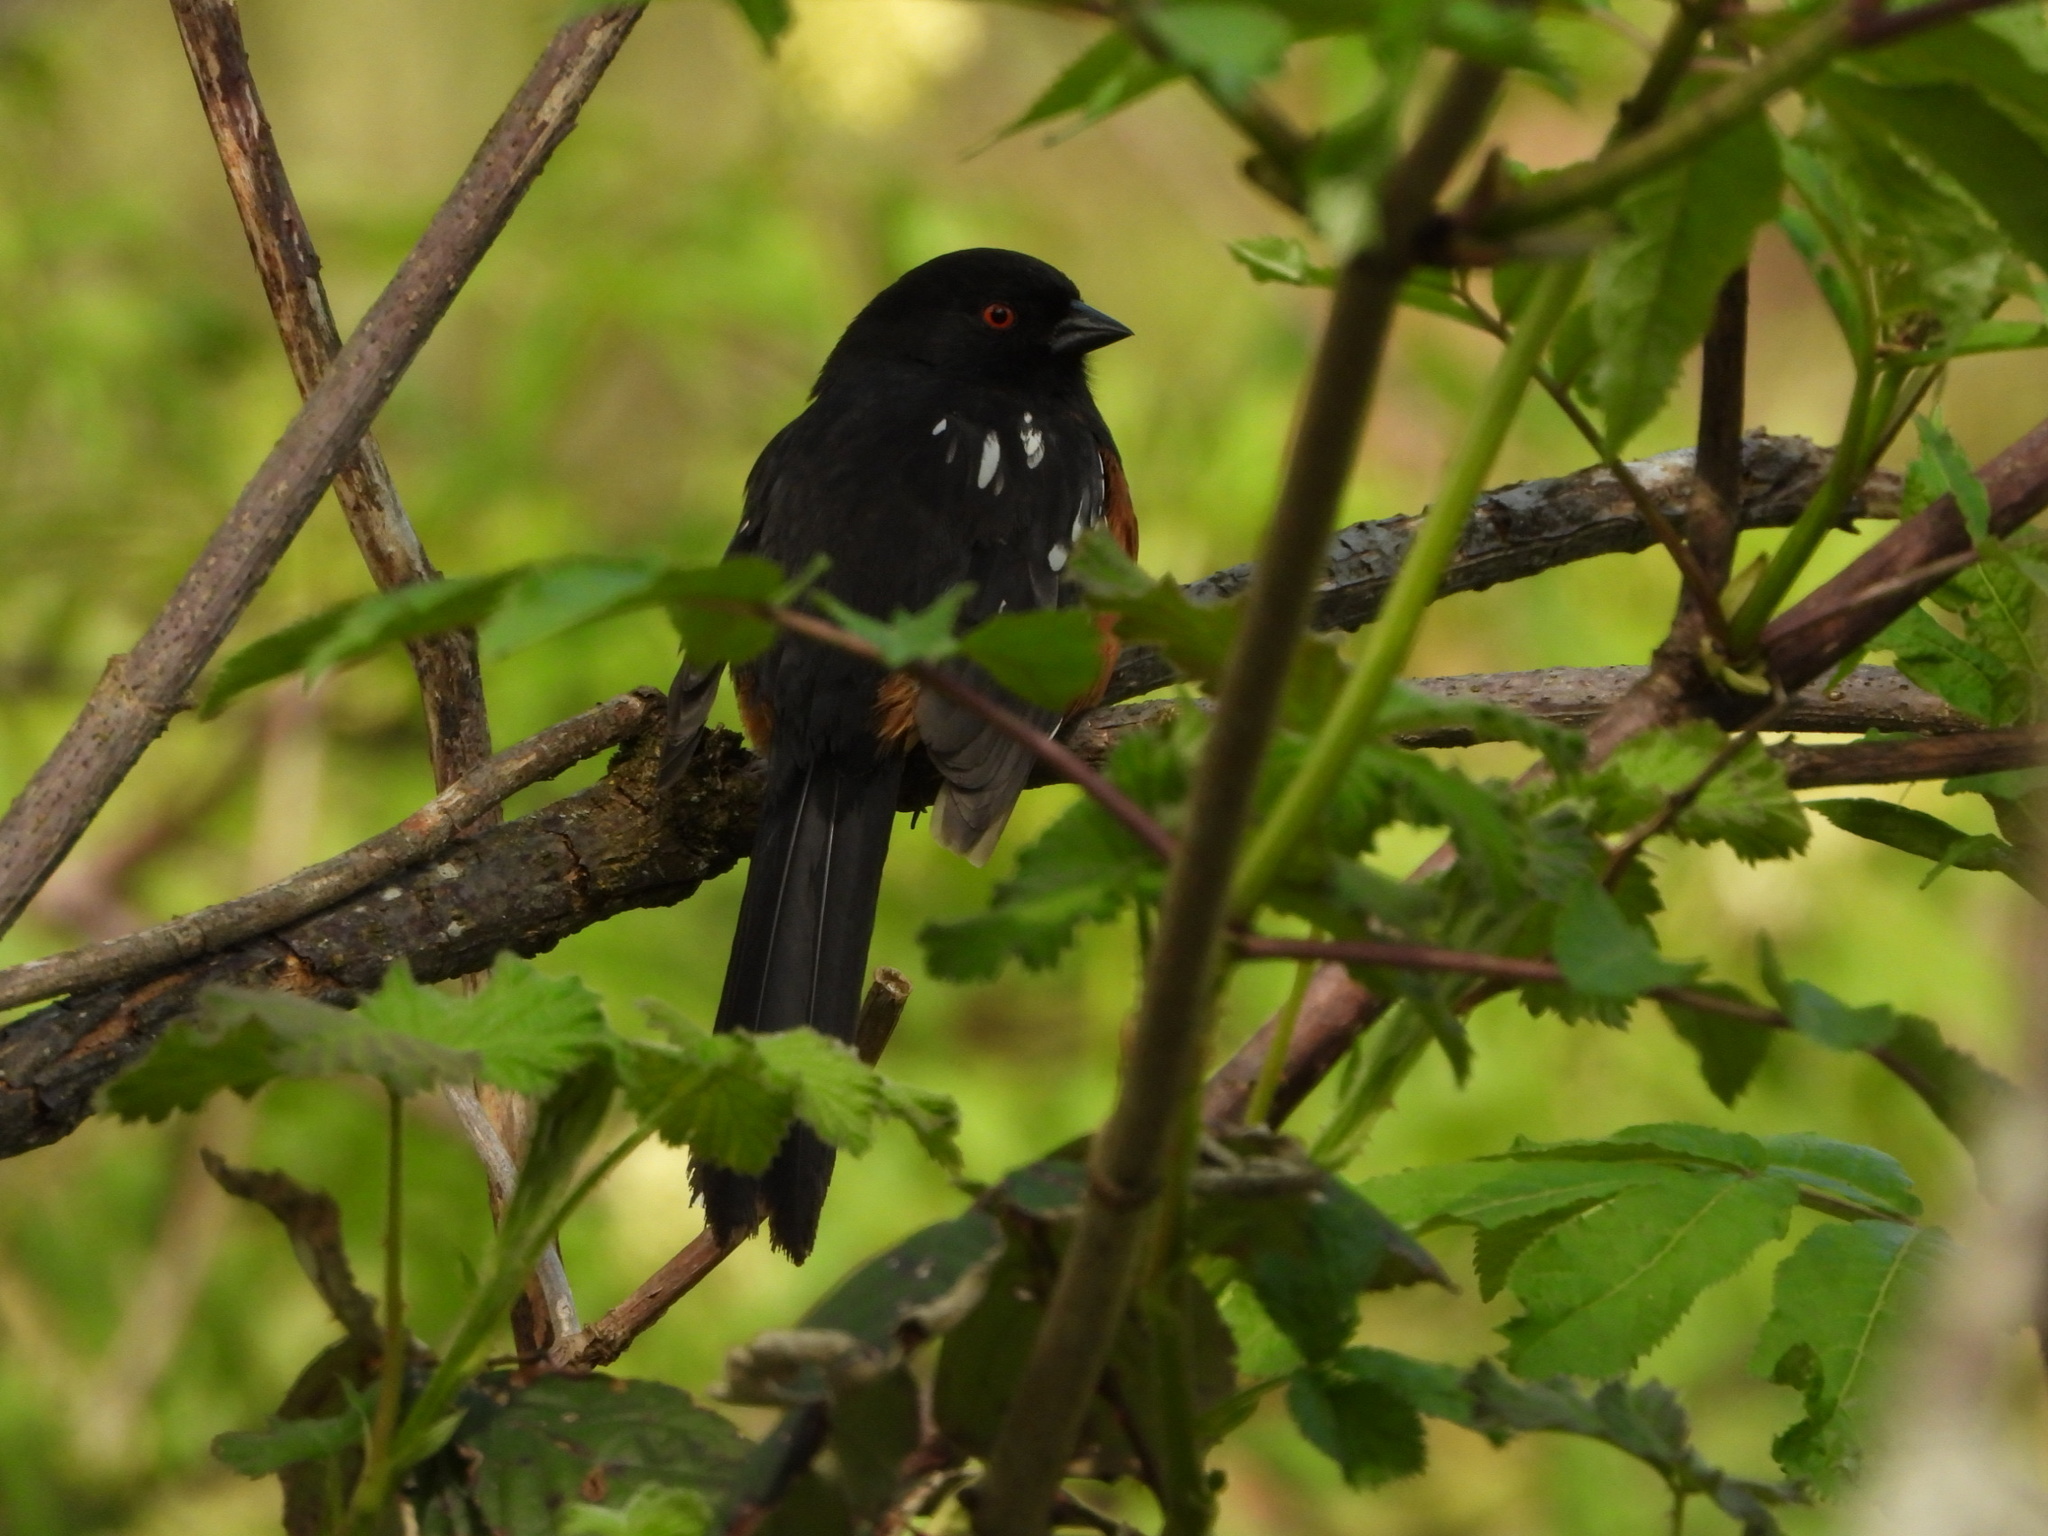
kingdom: Animalia
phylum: Chordata
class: Aves
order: Passeriformes
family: Passerellidae
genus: Pipilo
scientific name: Pipilo maculatus
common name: Spotted towhee
